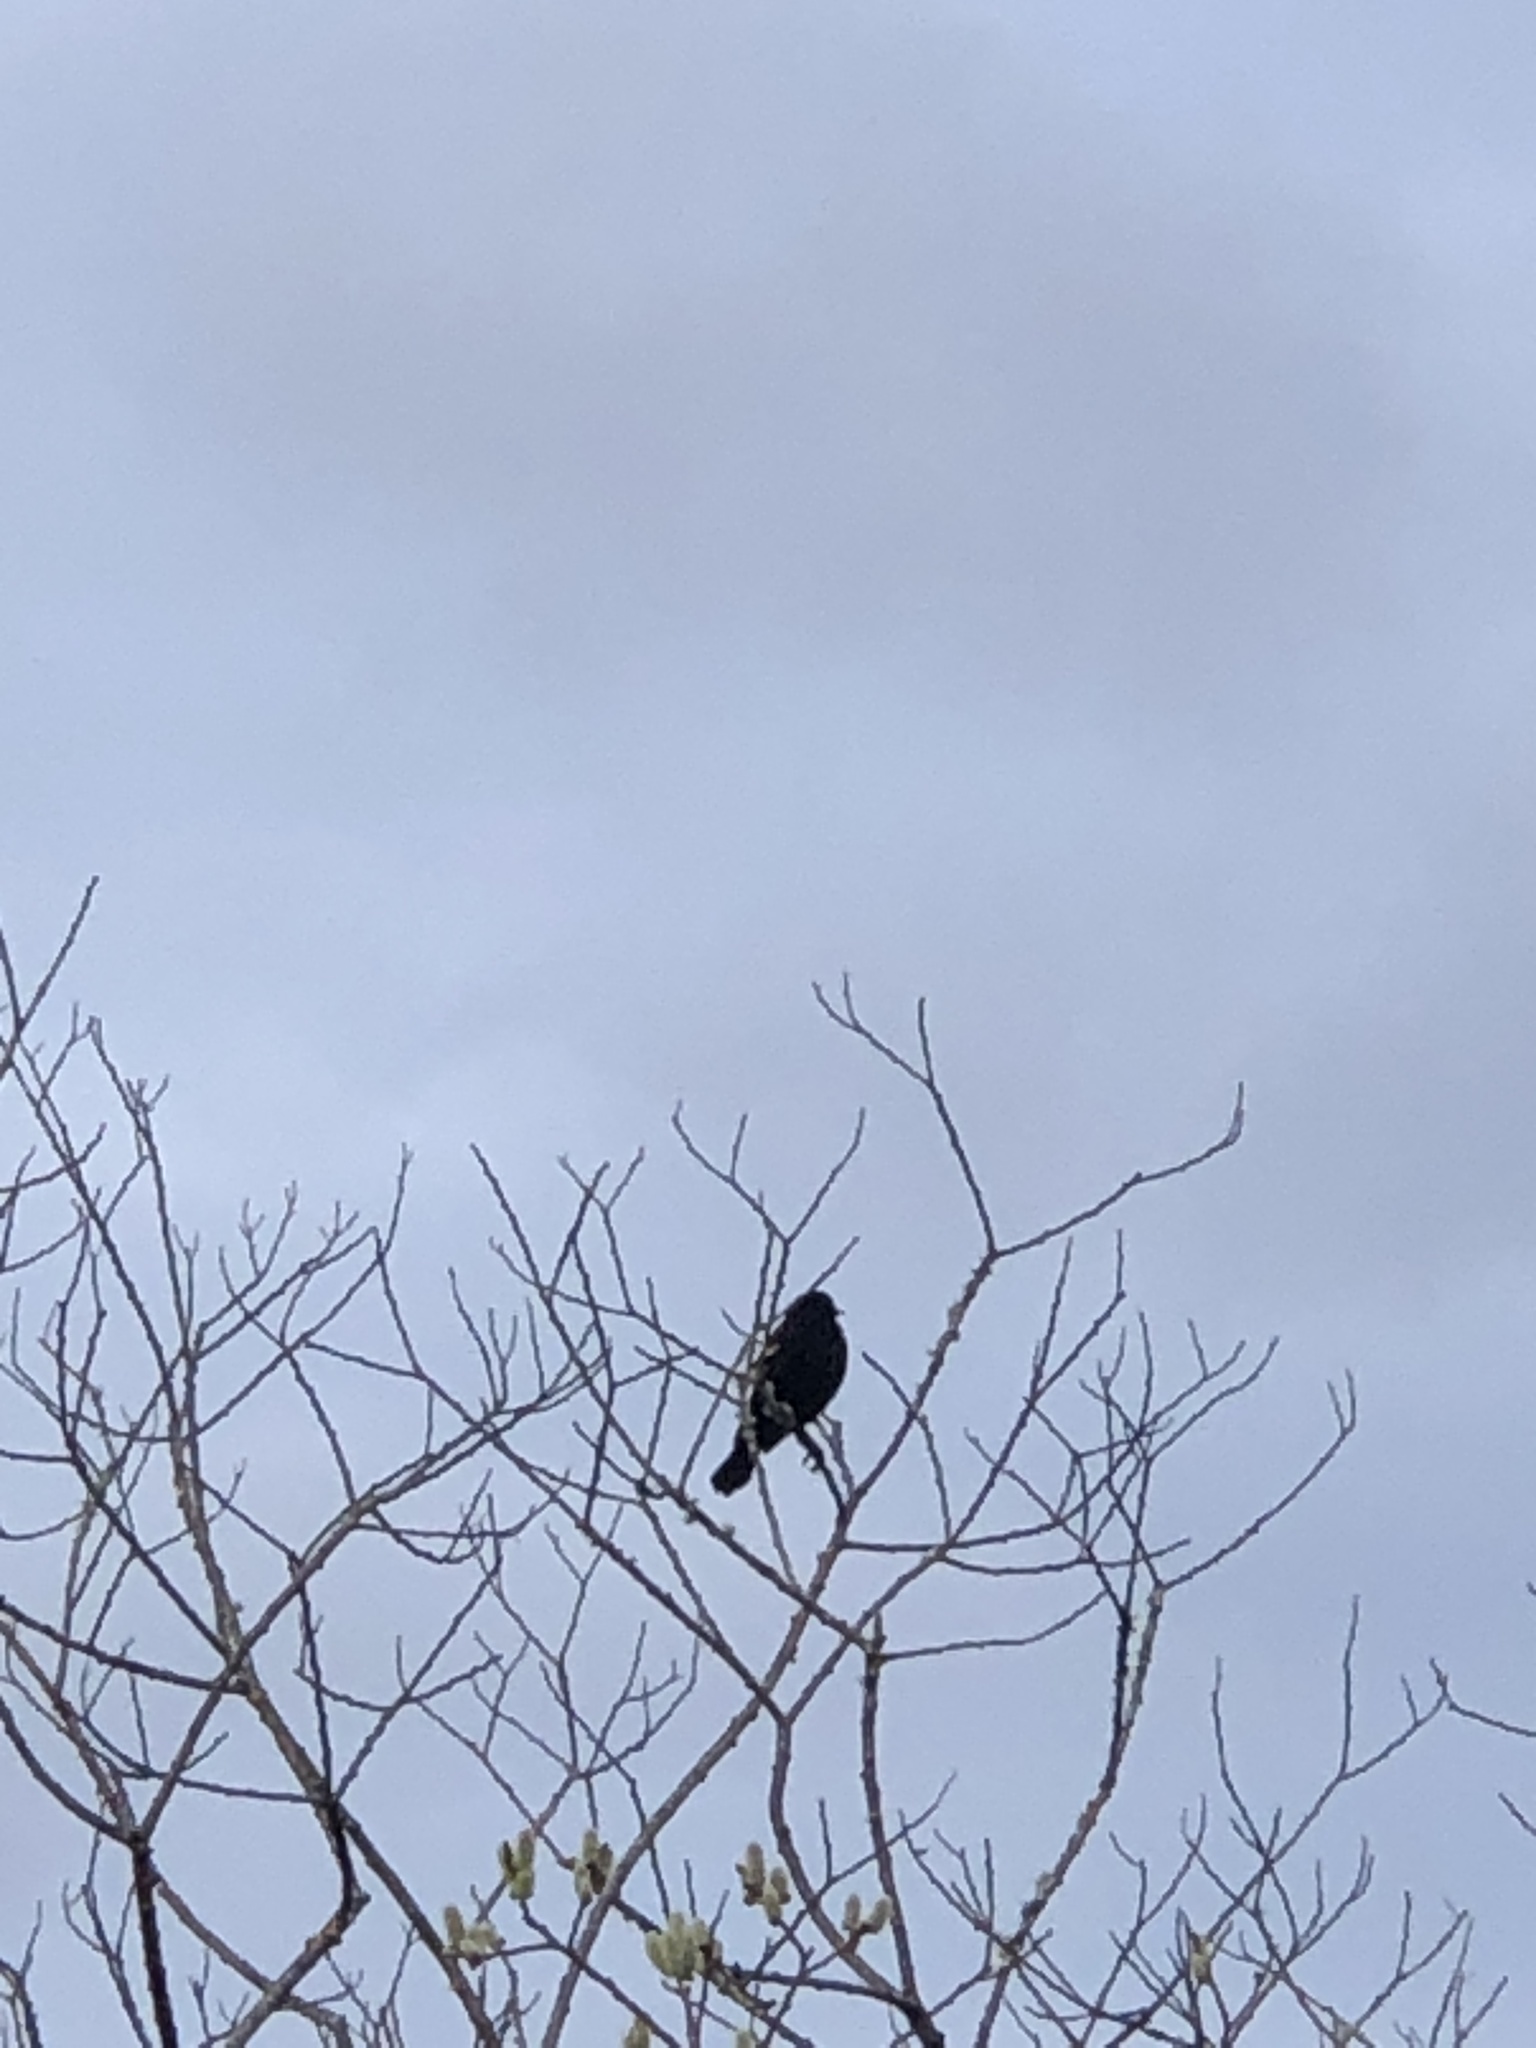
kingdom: Animalia
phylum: Chordata
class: Aves
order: Passeriformes
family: Icteridae
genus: Agelaius
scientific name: Agelaius phoeniceus
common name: Red-winged blackbird
